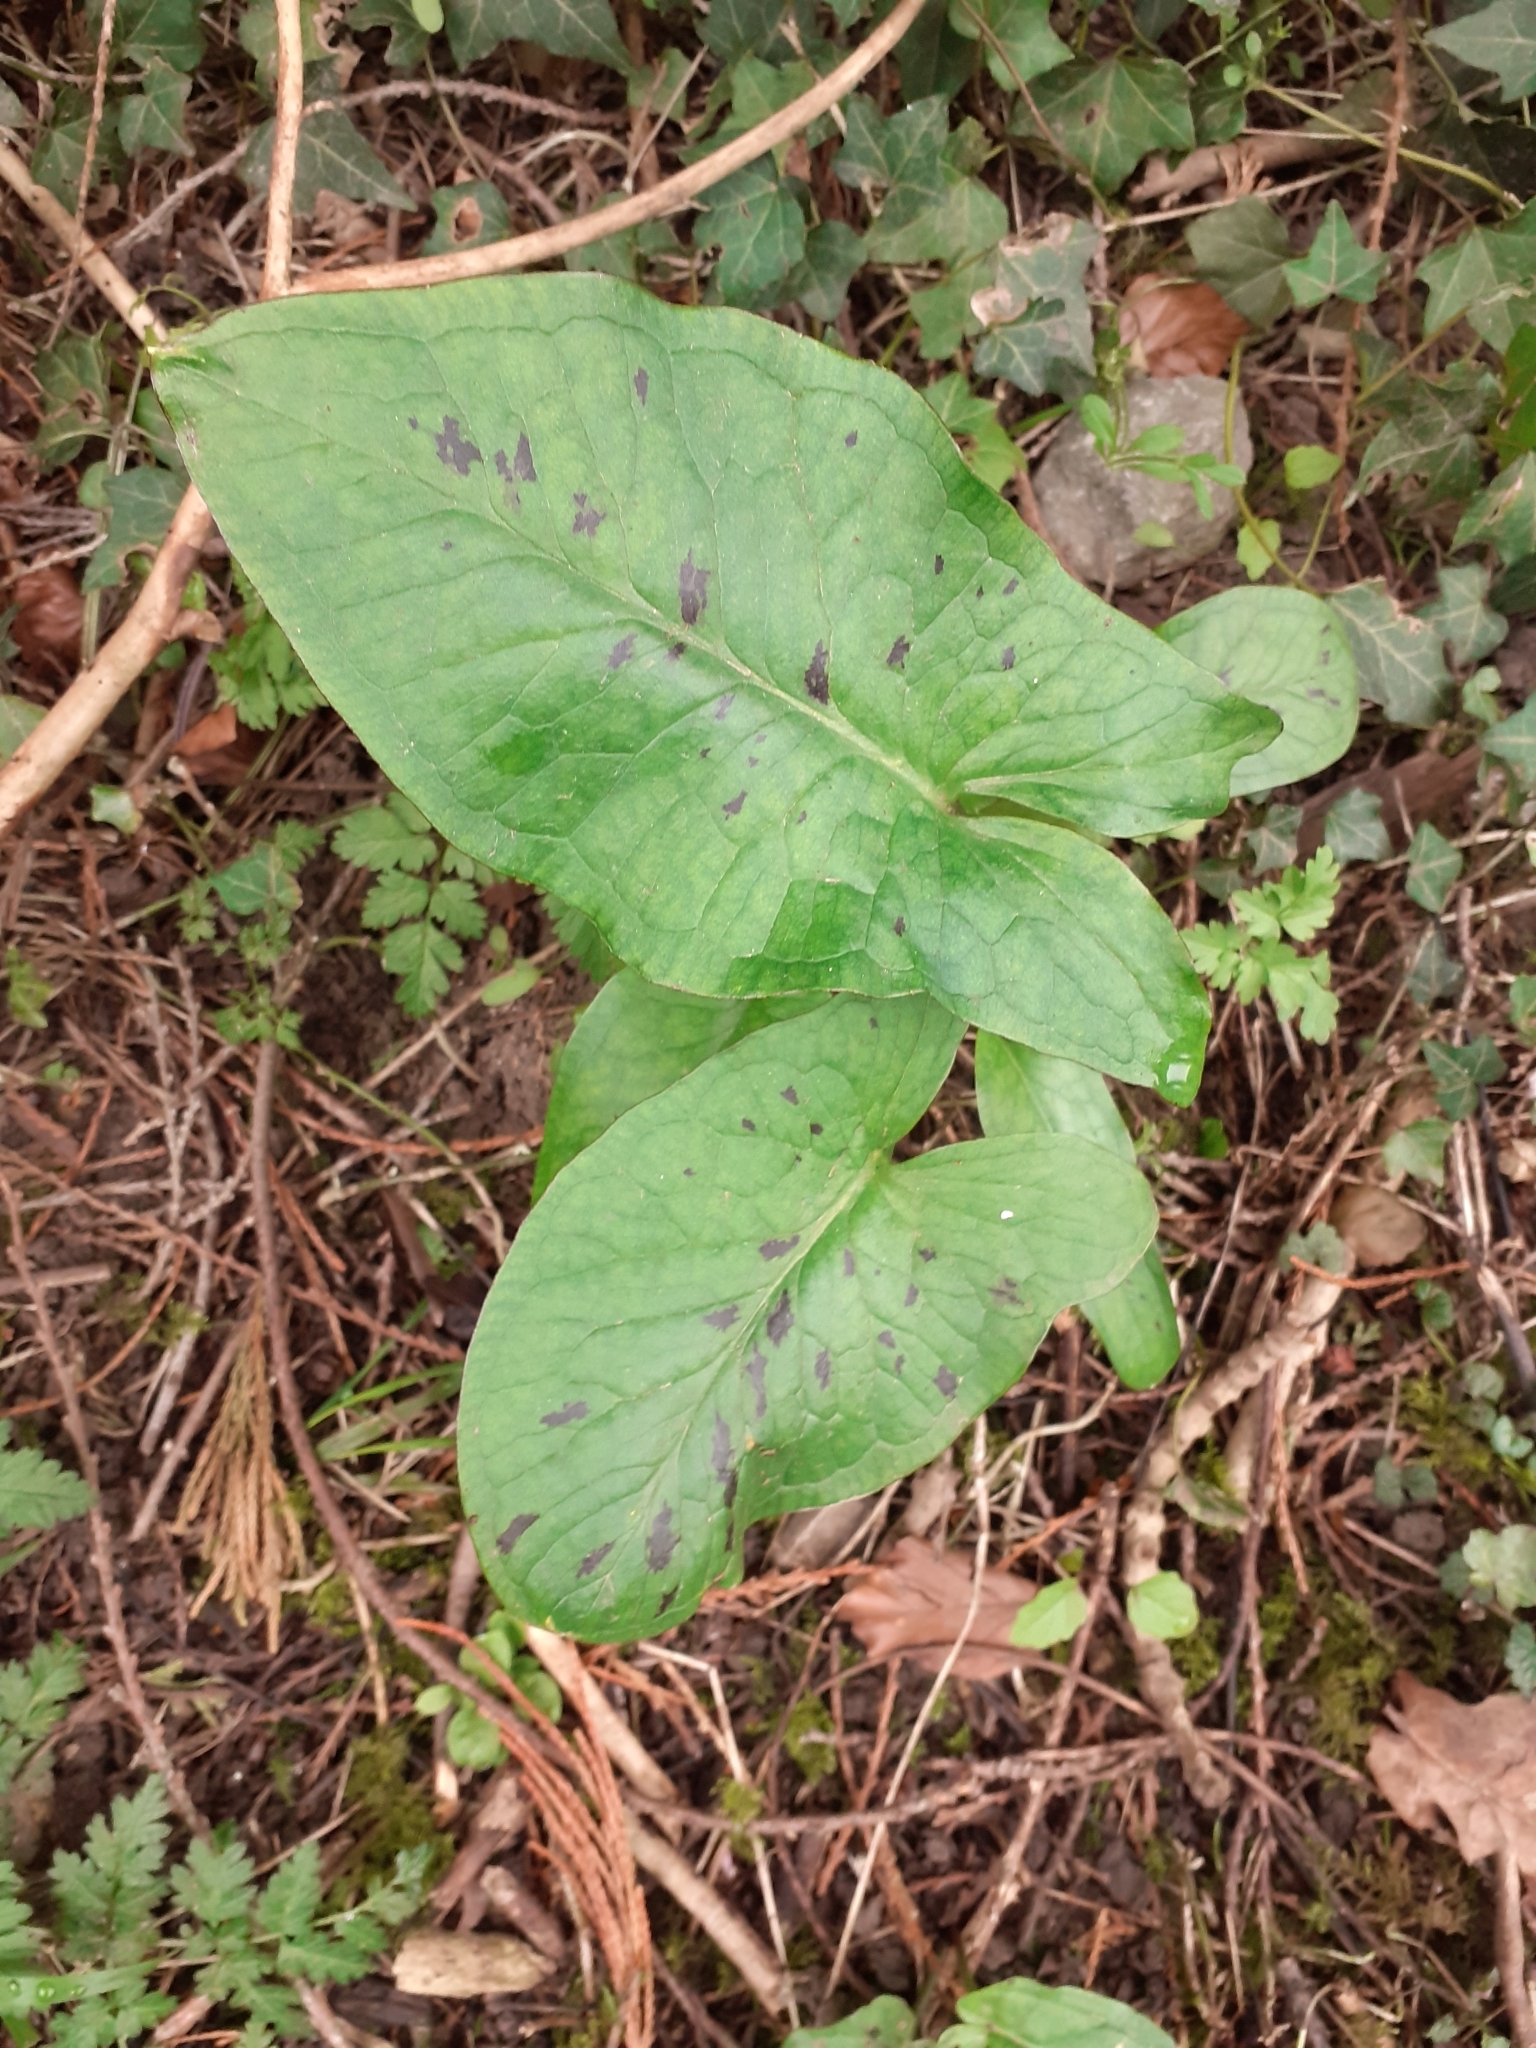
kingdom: Plantae
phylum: Tracheophyta
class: Liliopsida
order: Alismatales
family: Araceae
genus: Arum
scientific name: Arum maculatum
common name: Lords-and-ladies
